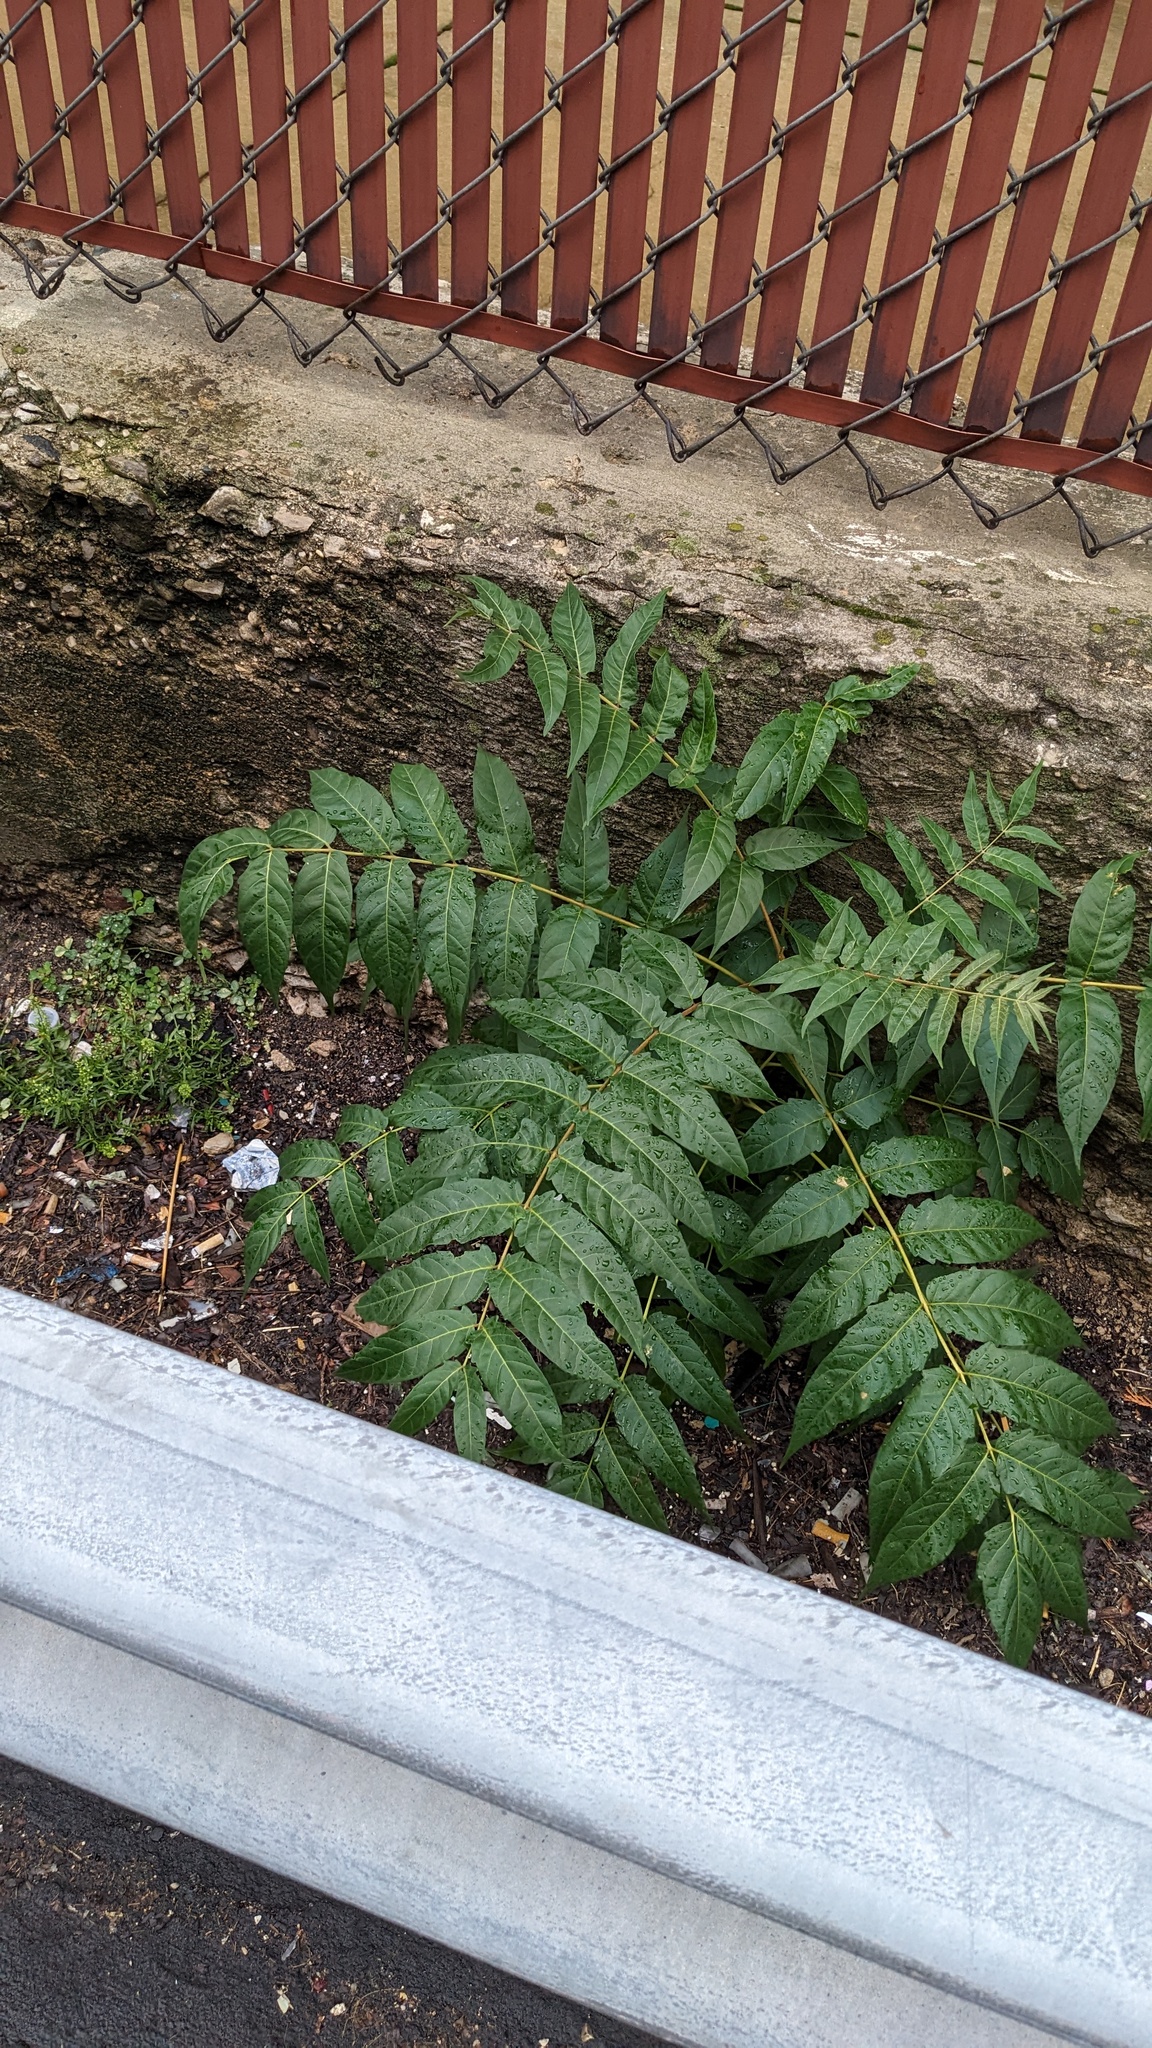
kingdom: Plantae
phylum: Tracheophyta
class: Magnoliopsida
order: Sapindales
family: Simaroubaceae
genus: Ailanthus
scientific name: Ailanthus altissima
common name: Tree-of-heaven
